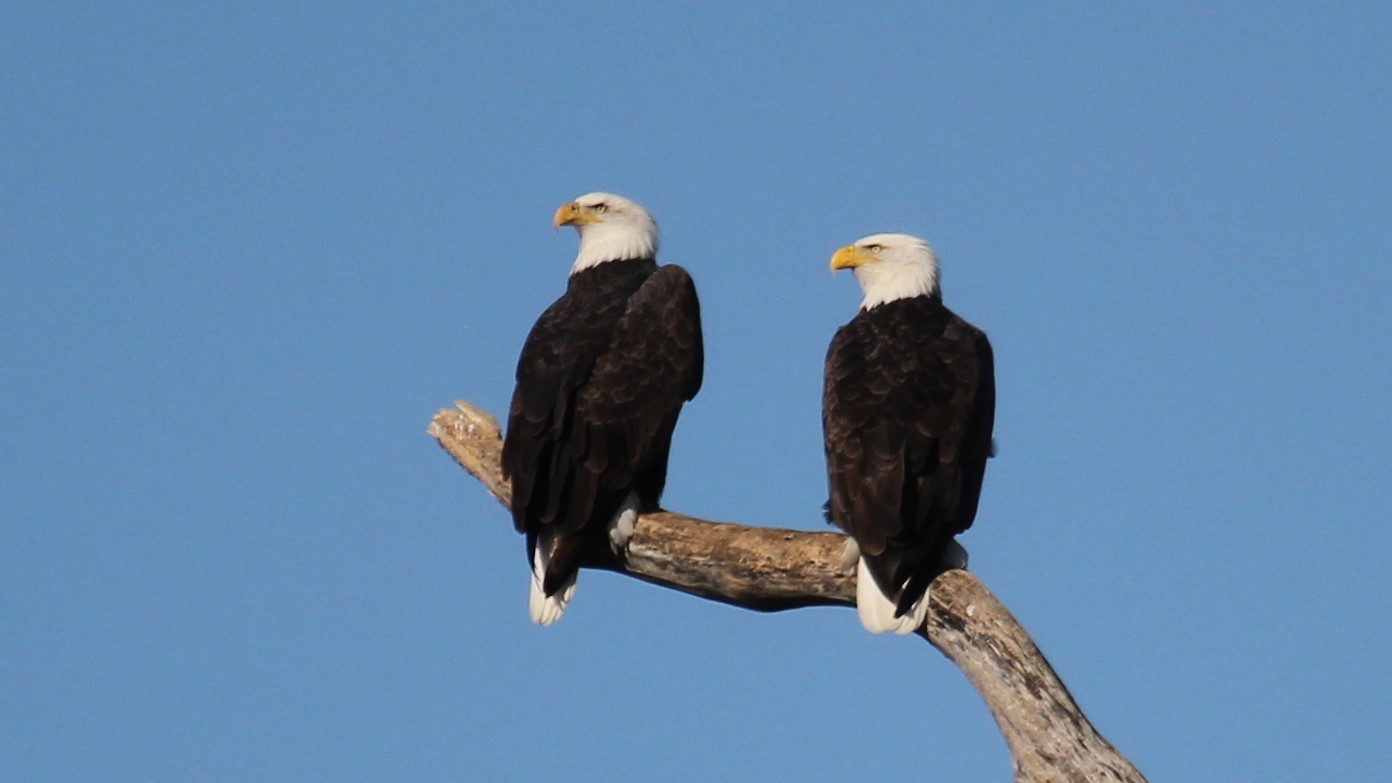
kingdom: Animalia
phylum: Chordata
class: Aves
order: Accipitriformes
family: Accipitridae
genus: Haliaeetus
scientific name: Haliaeetus leucocephalus
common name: Bald eagle
